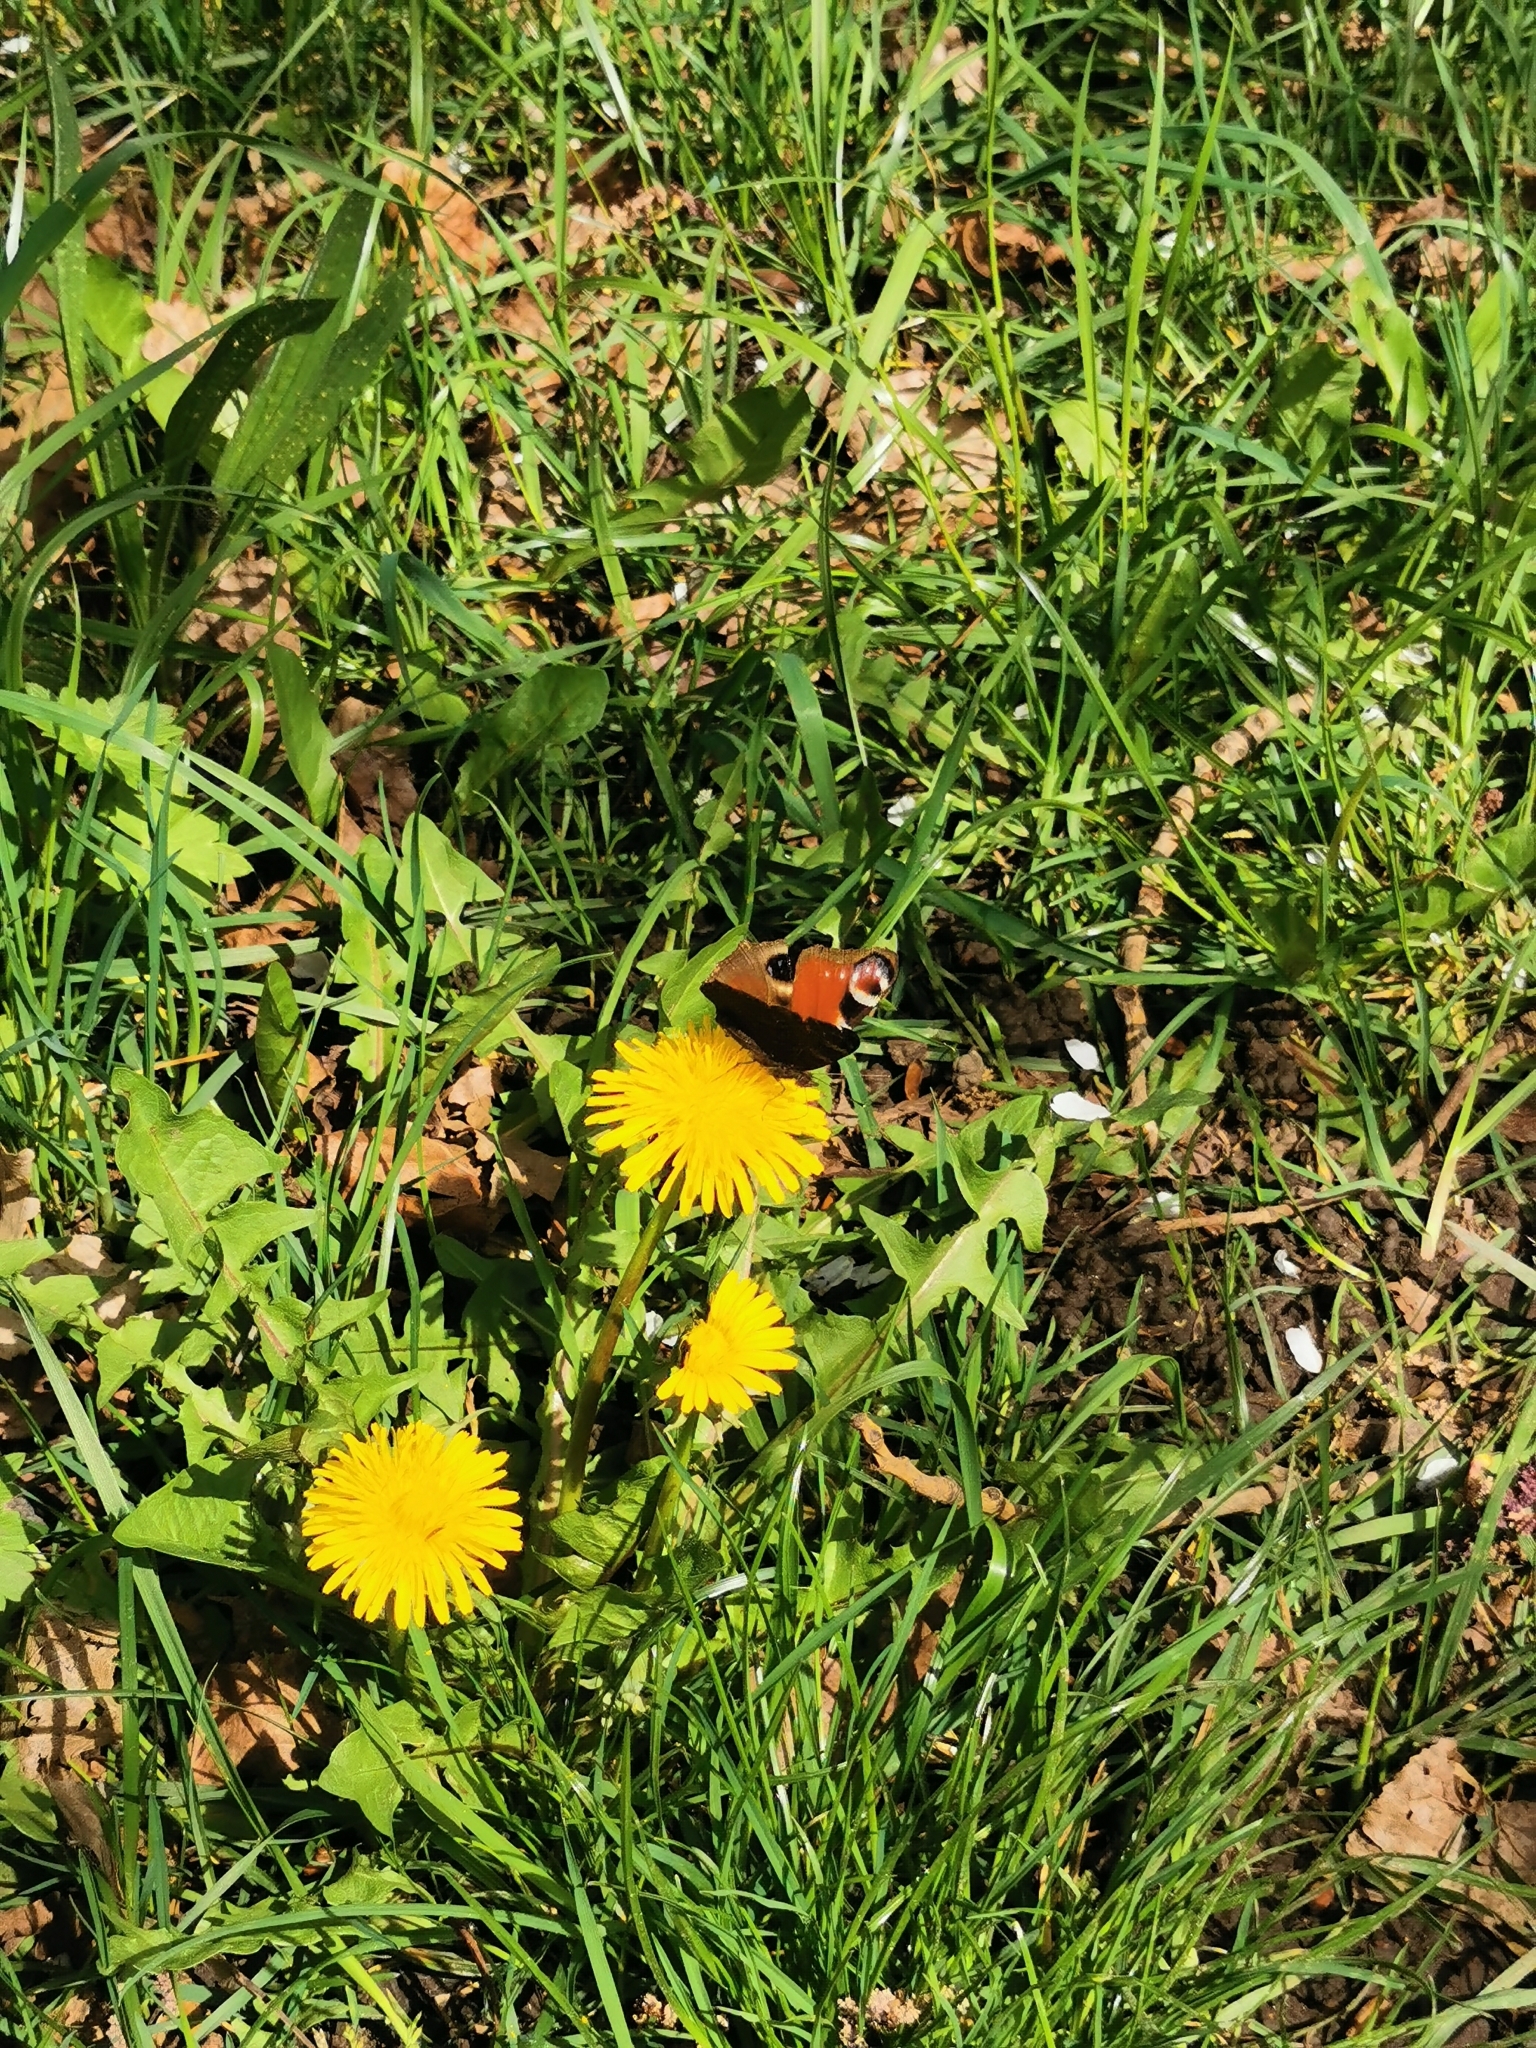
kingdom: Animalia
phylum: Arthropoda
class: Insecta
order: Lepidoptera
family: Nymphalidae
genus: Aglais
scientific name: Aglais io
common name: Peacock
